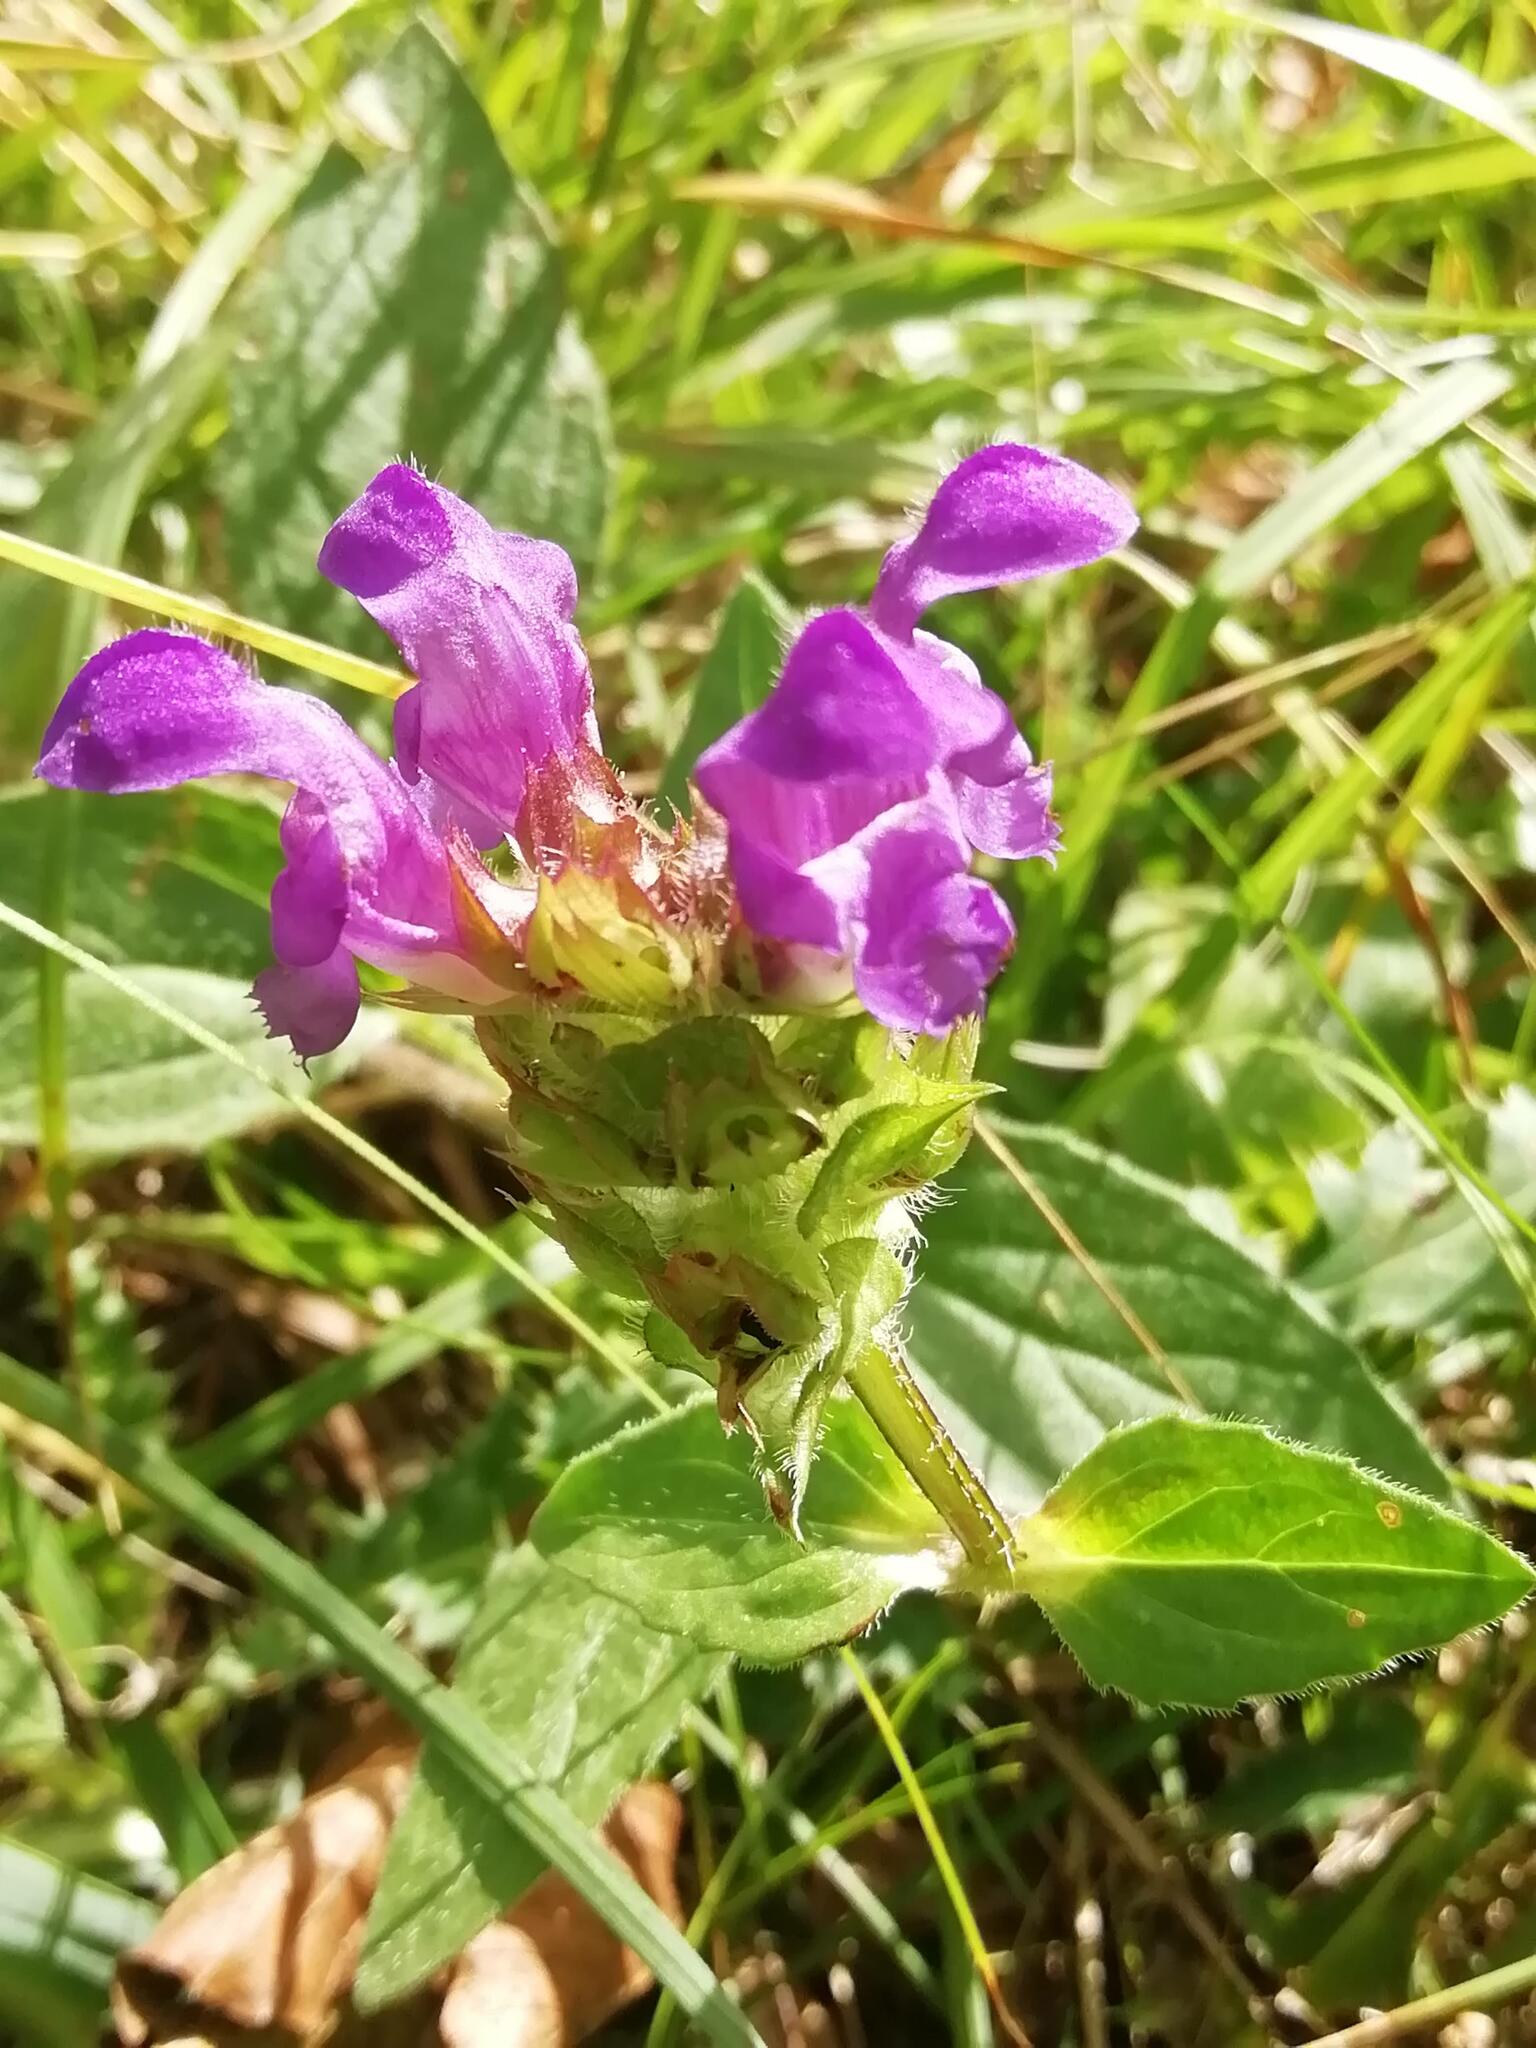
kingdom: Plantae
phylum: Tracheophyta
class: Magnoliopsida
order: Lamiales
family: Lamiaceae
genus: Prunella
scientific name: Prunella grandiflora
